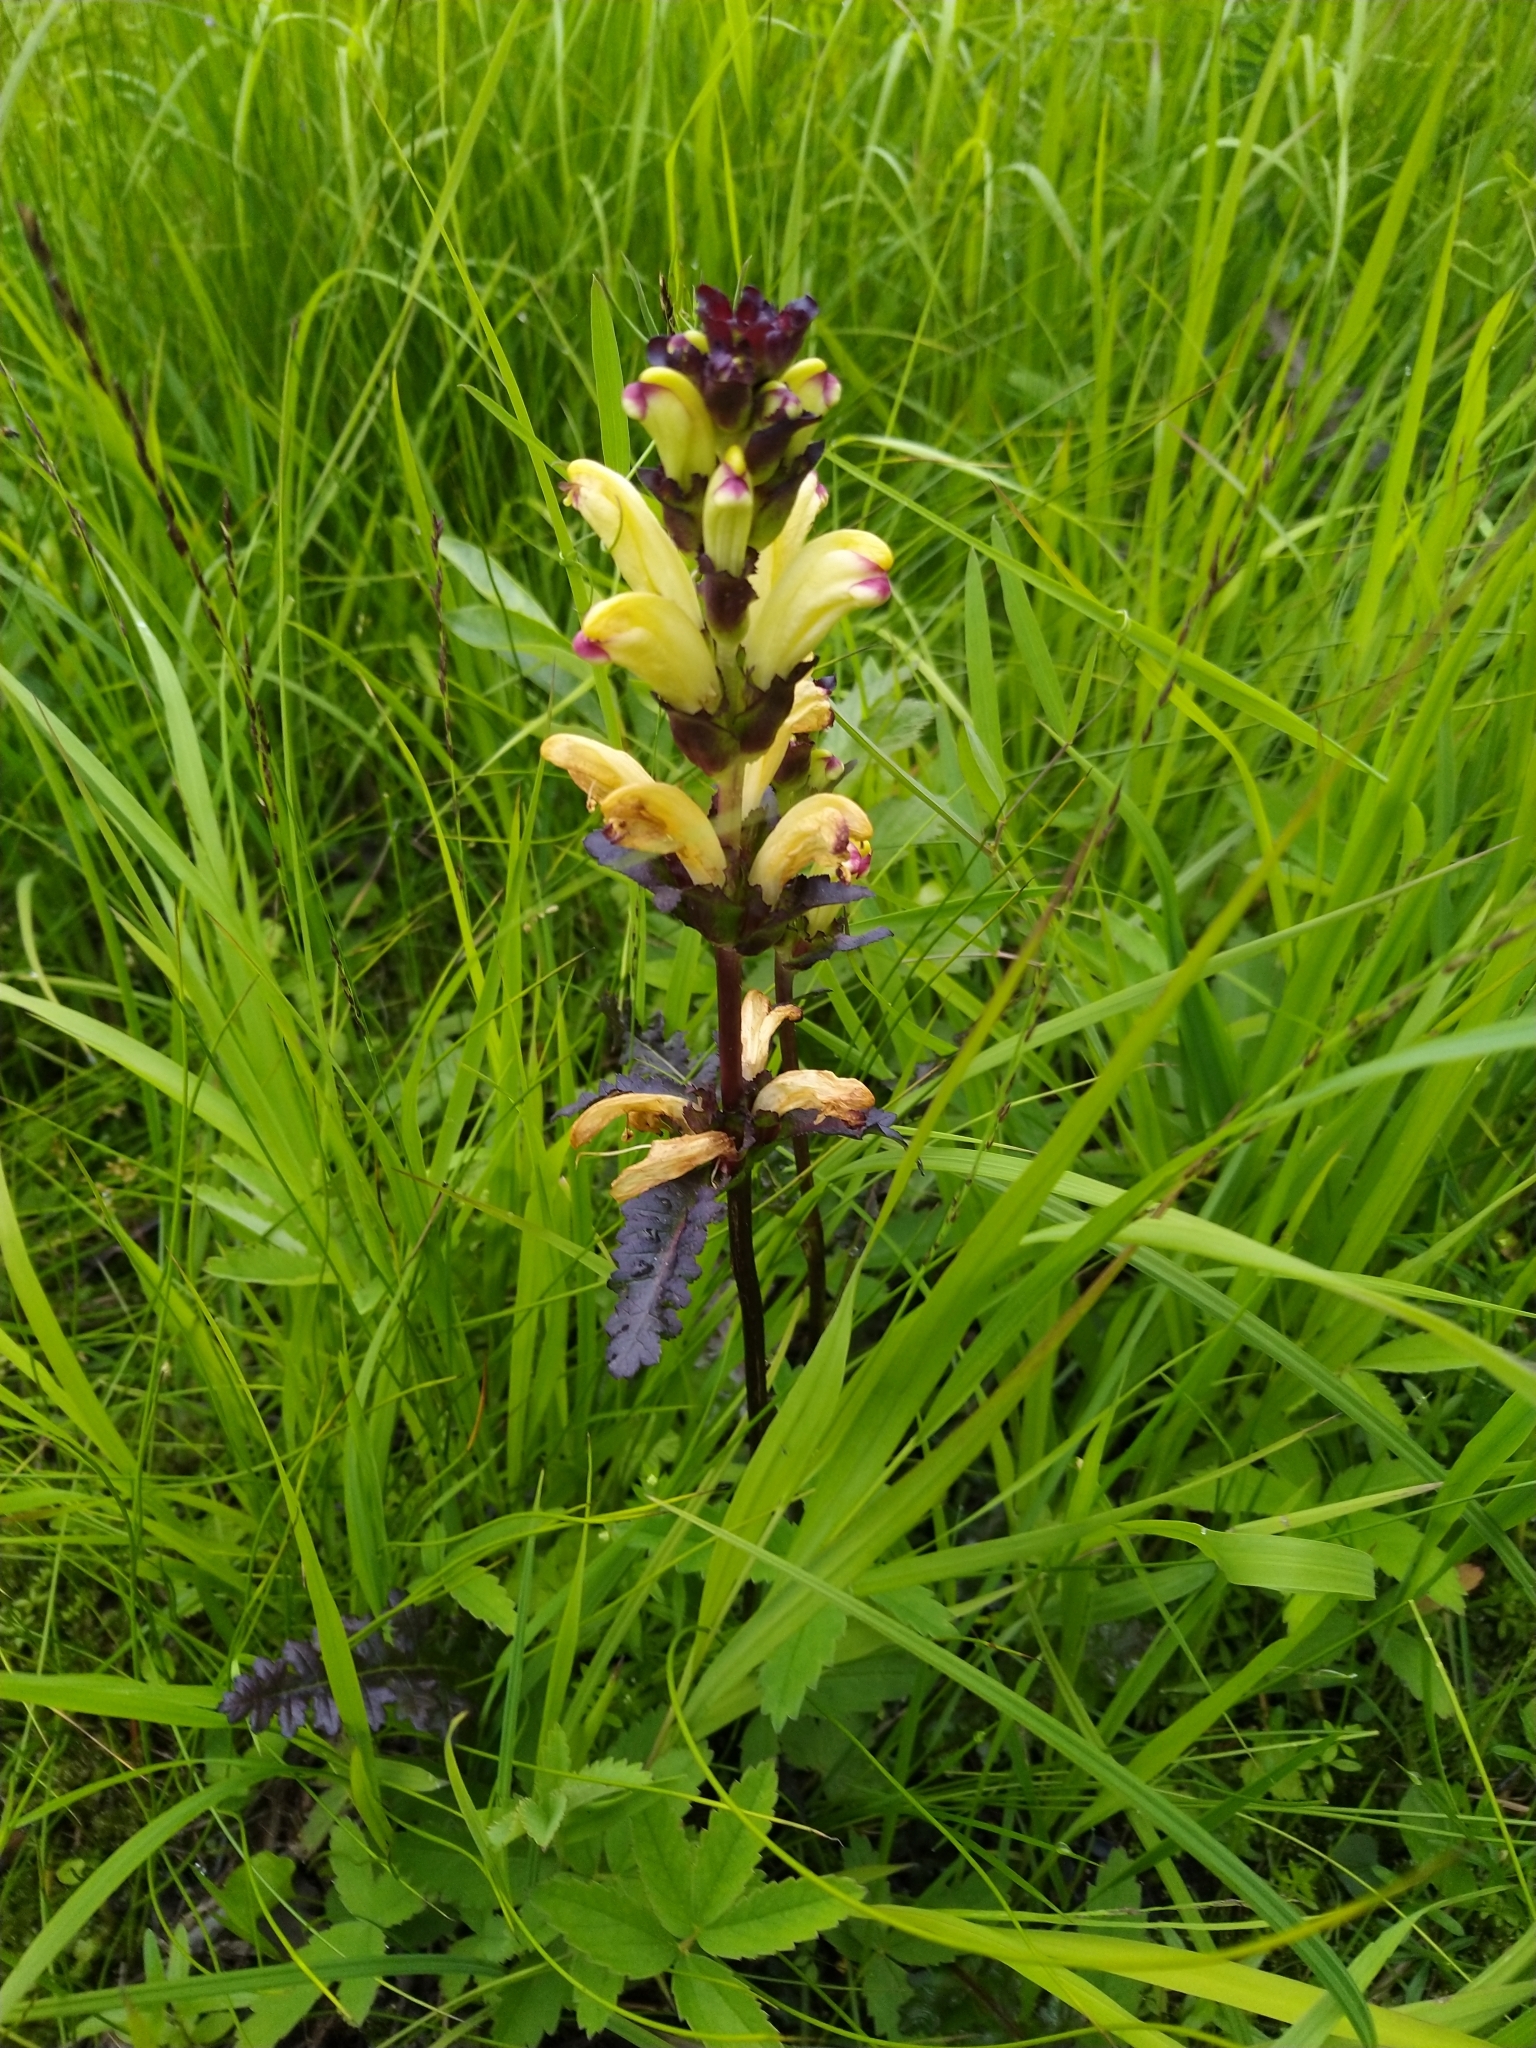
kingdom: Plantae
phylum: Tracheophyta
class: Magnoliopsida
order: Lamiales
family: Orobanchaceae
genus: Pedicularis
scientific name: Pedicularis sceptrum-carolinum
